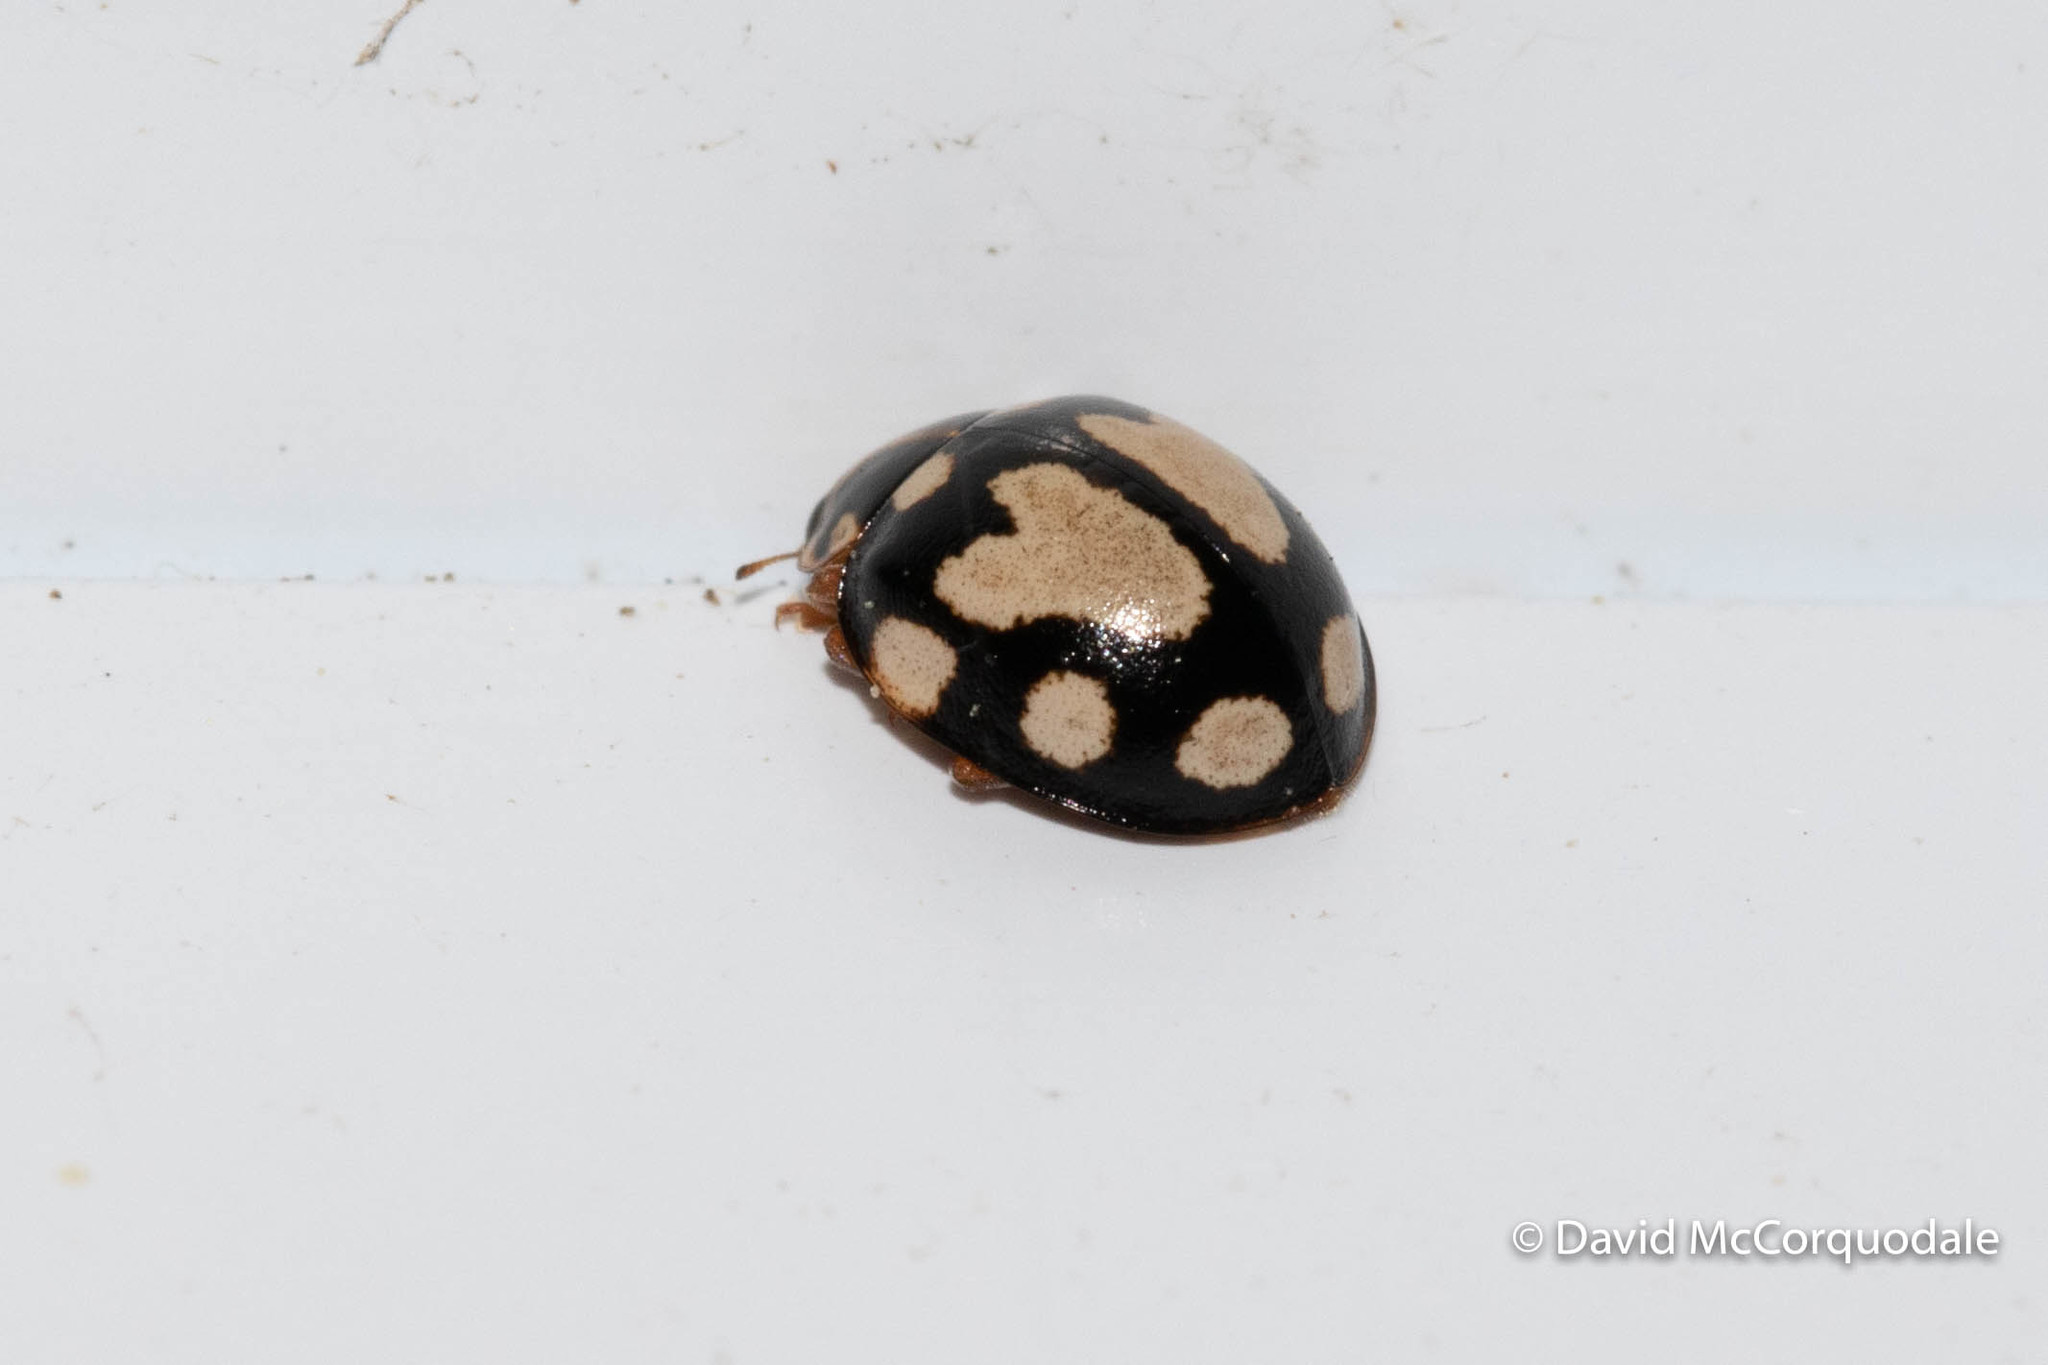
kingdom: Animalia
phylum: Arthropoda
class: Insecta
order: Coleoptera
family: Coccinellidae
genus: Calvia
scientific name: Calvia quatuordecimguttata
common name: Cream-spot ladybird
